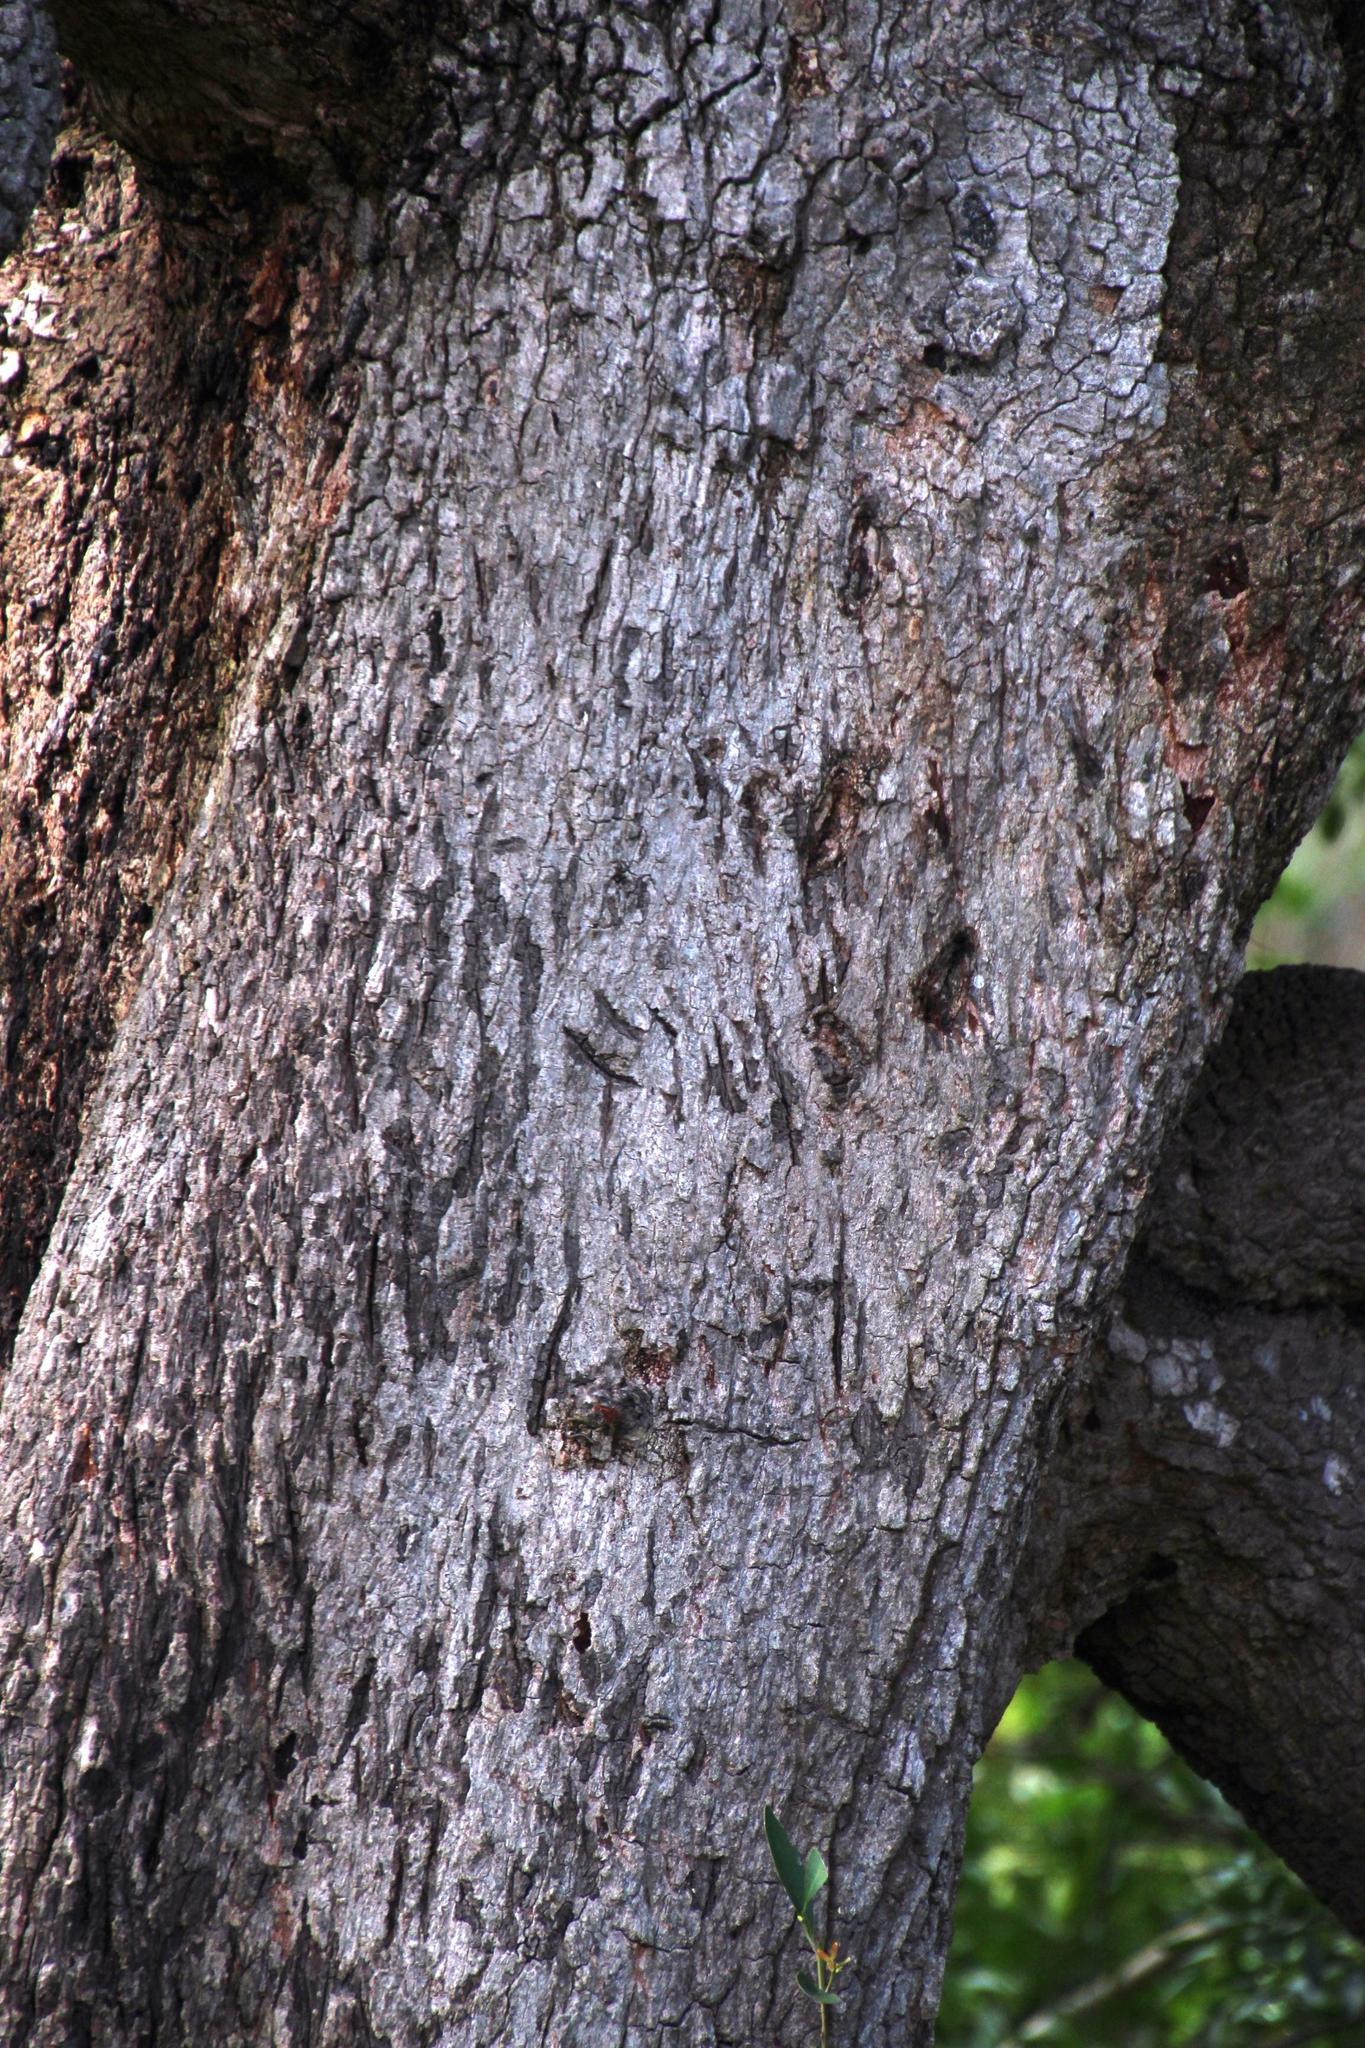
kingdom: Animalia
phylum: Chordata
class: Mammalia
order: Carnivora
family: Felidae
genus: Panthera
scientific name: Panthera pardus
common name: Leopard
